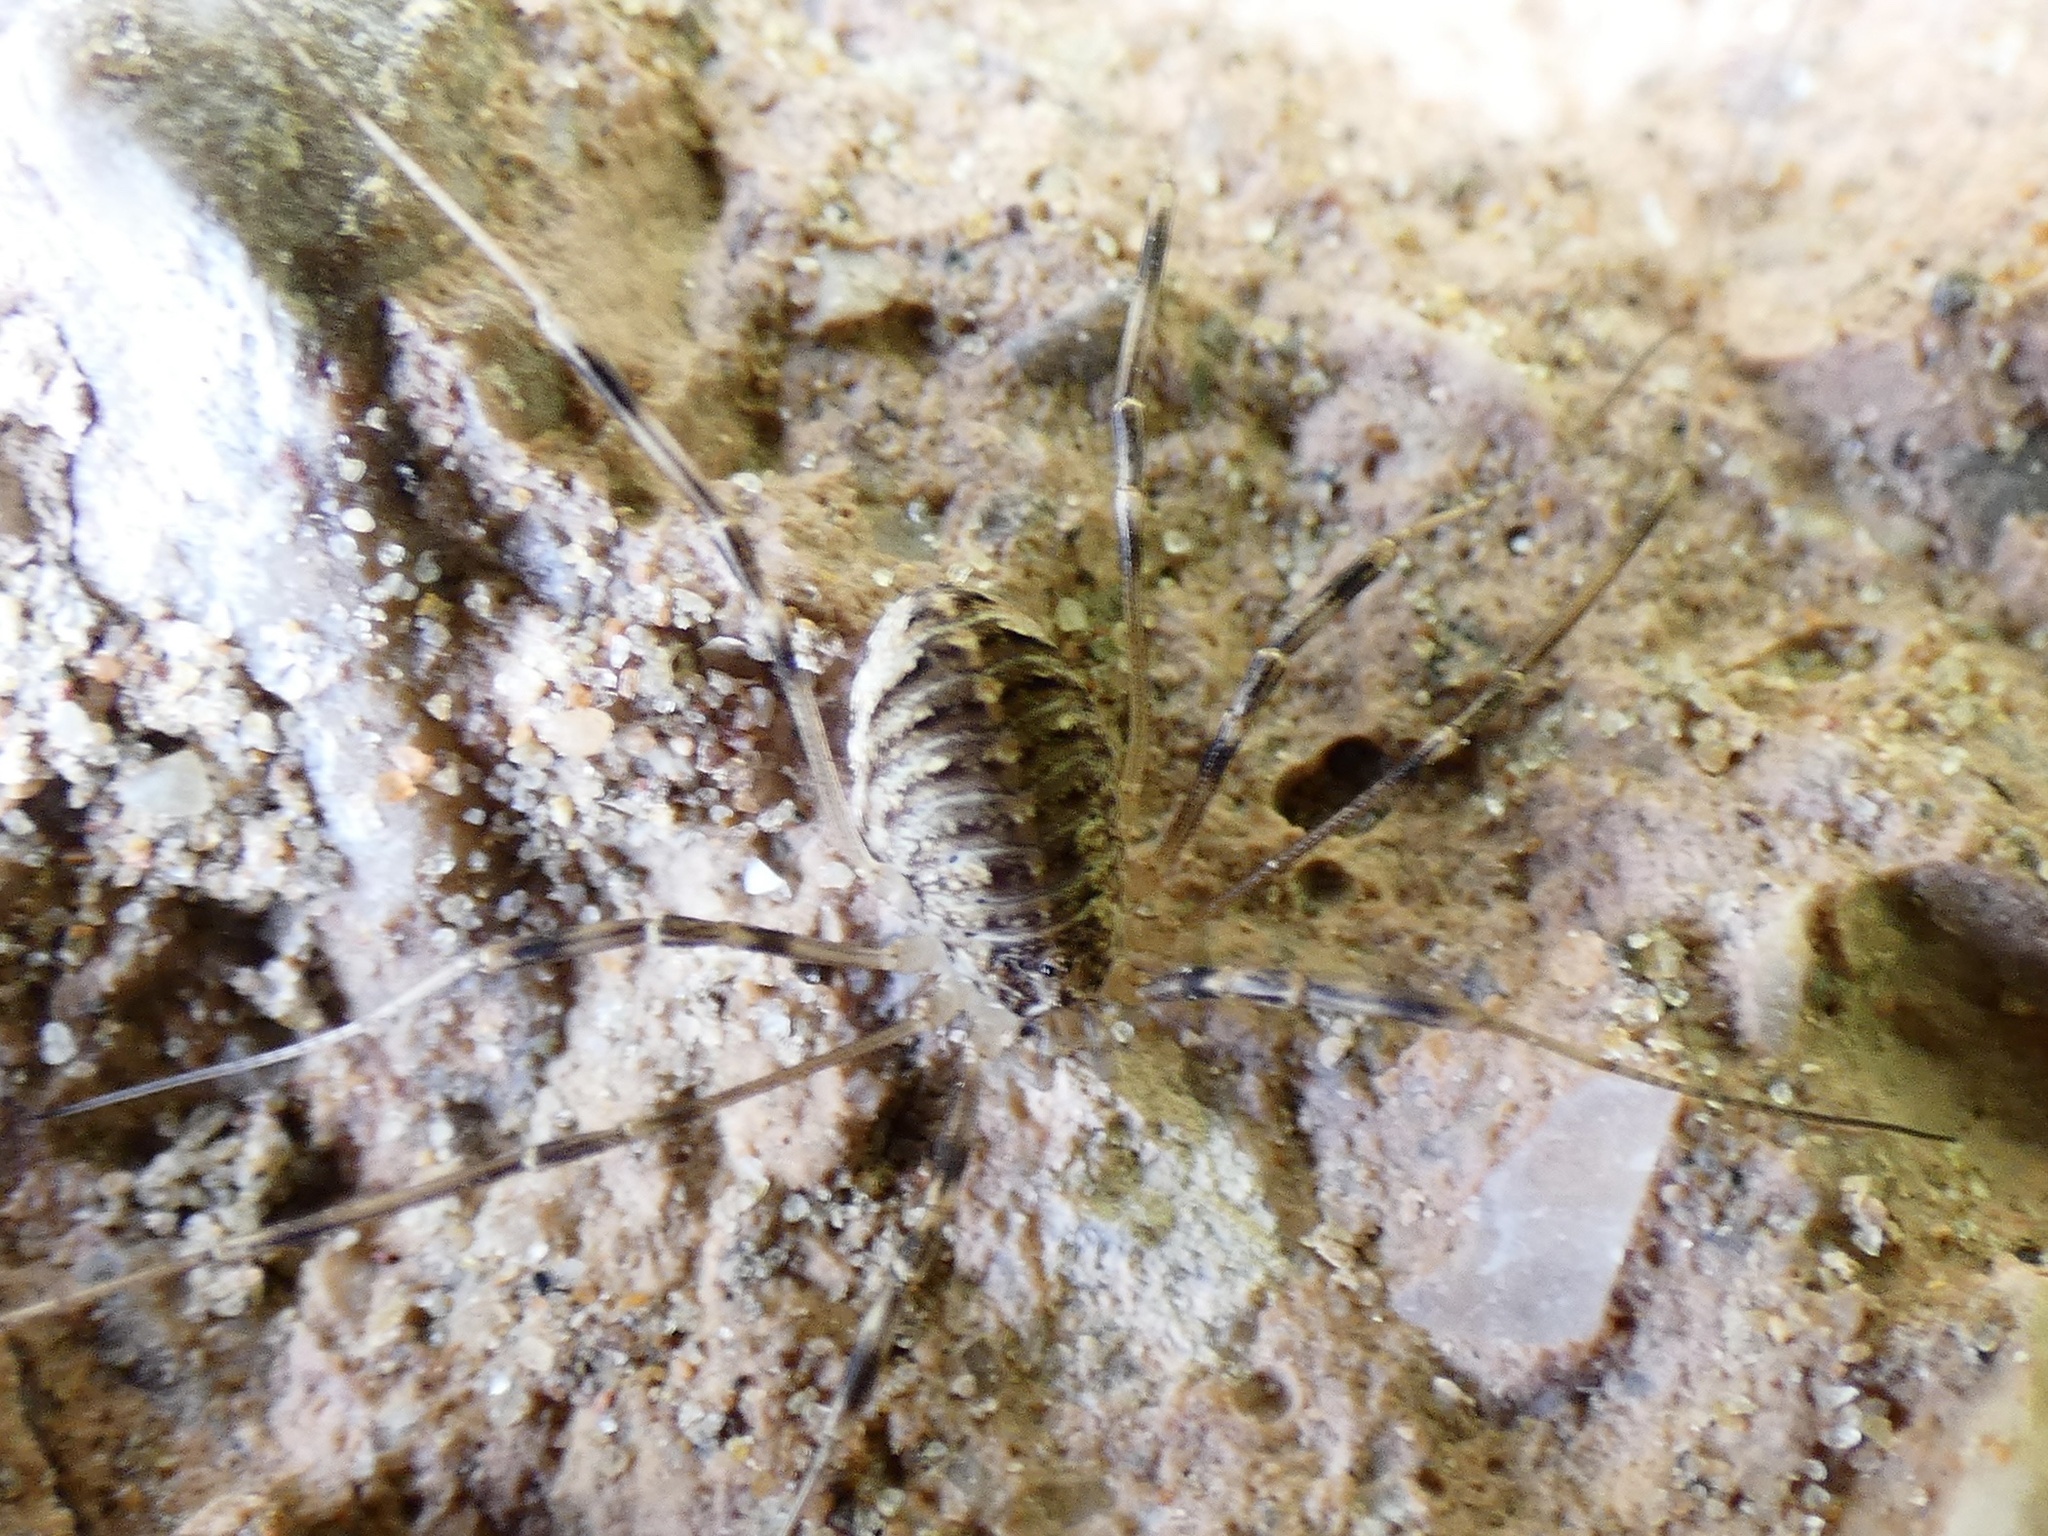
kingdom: Animalia
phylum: Arthropoda
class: Arachnida
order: Opiliones
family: Phalangiidae
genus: Opilio
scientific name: Opilio saxatilis
